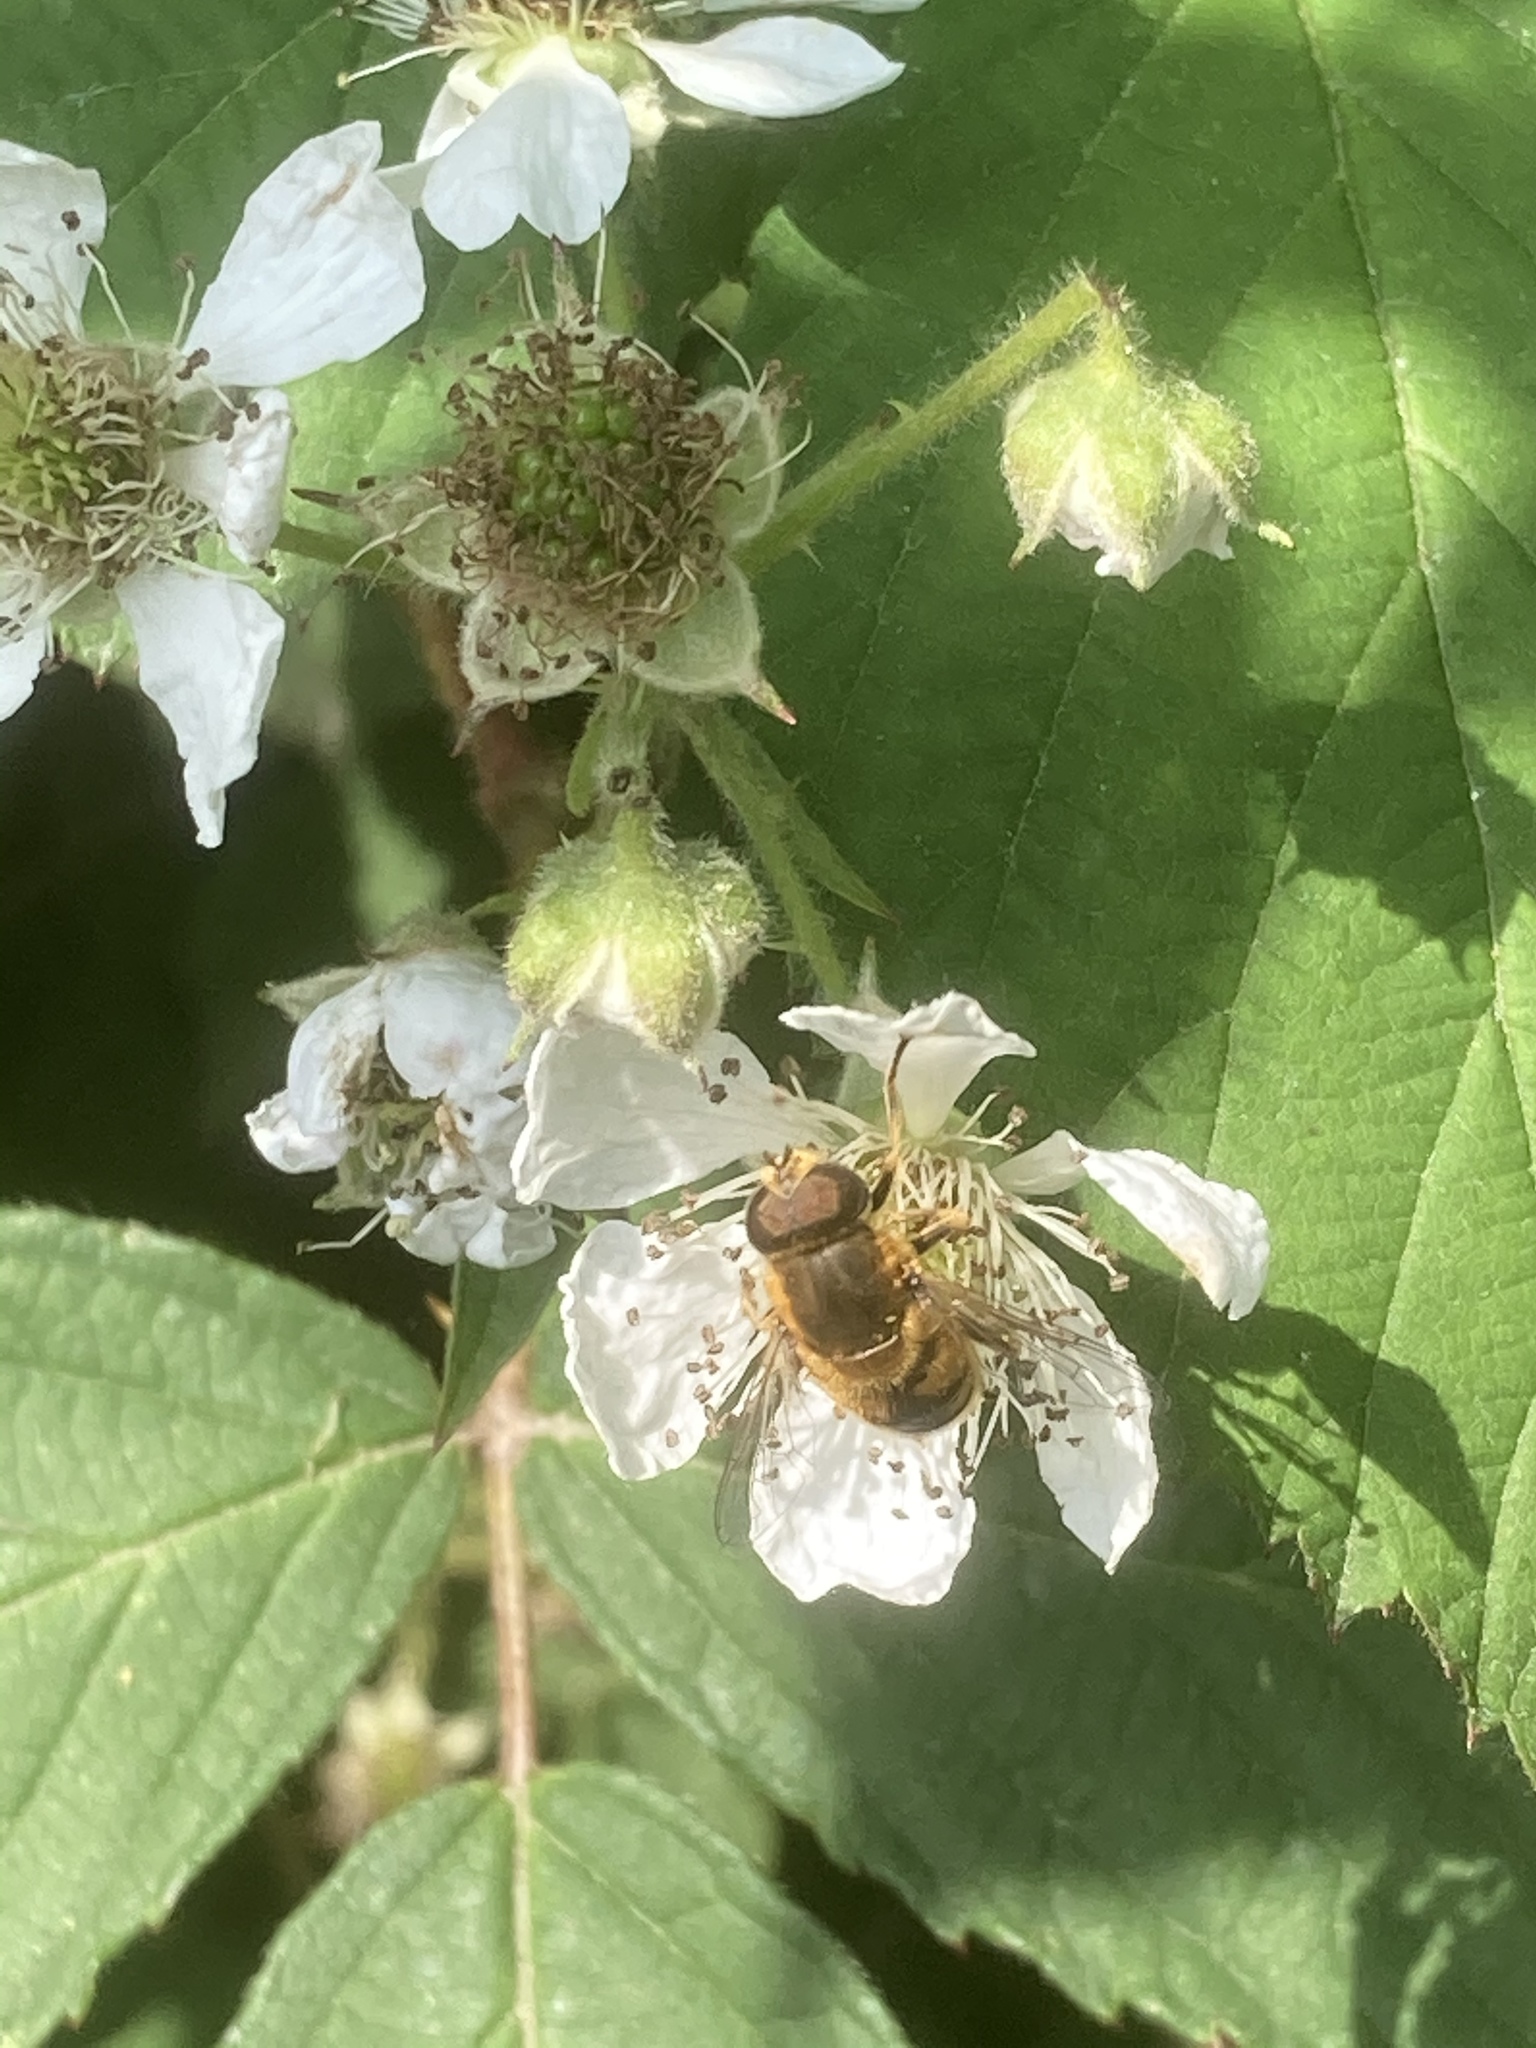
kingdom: Animalia
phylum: Arthropoda
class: Insecta
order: Diptera
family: Syrphidae
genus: Eristalis
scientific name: Eristalis nemorum
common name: Orange-spined drone fly
